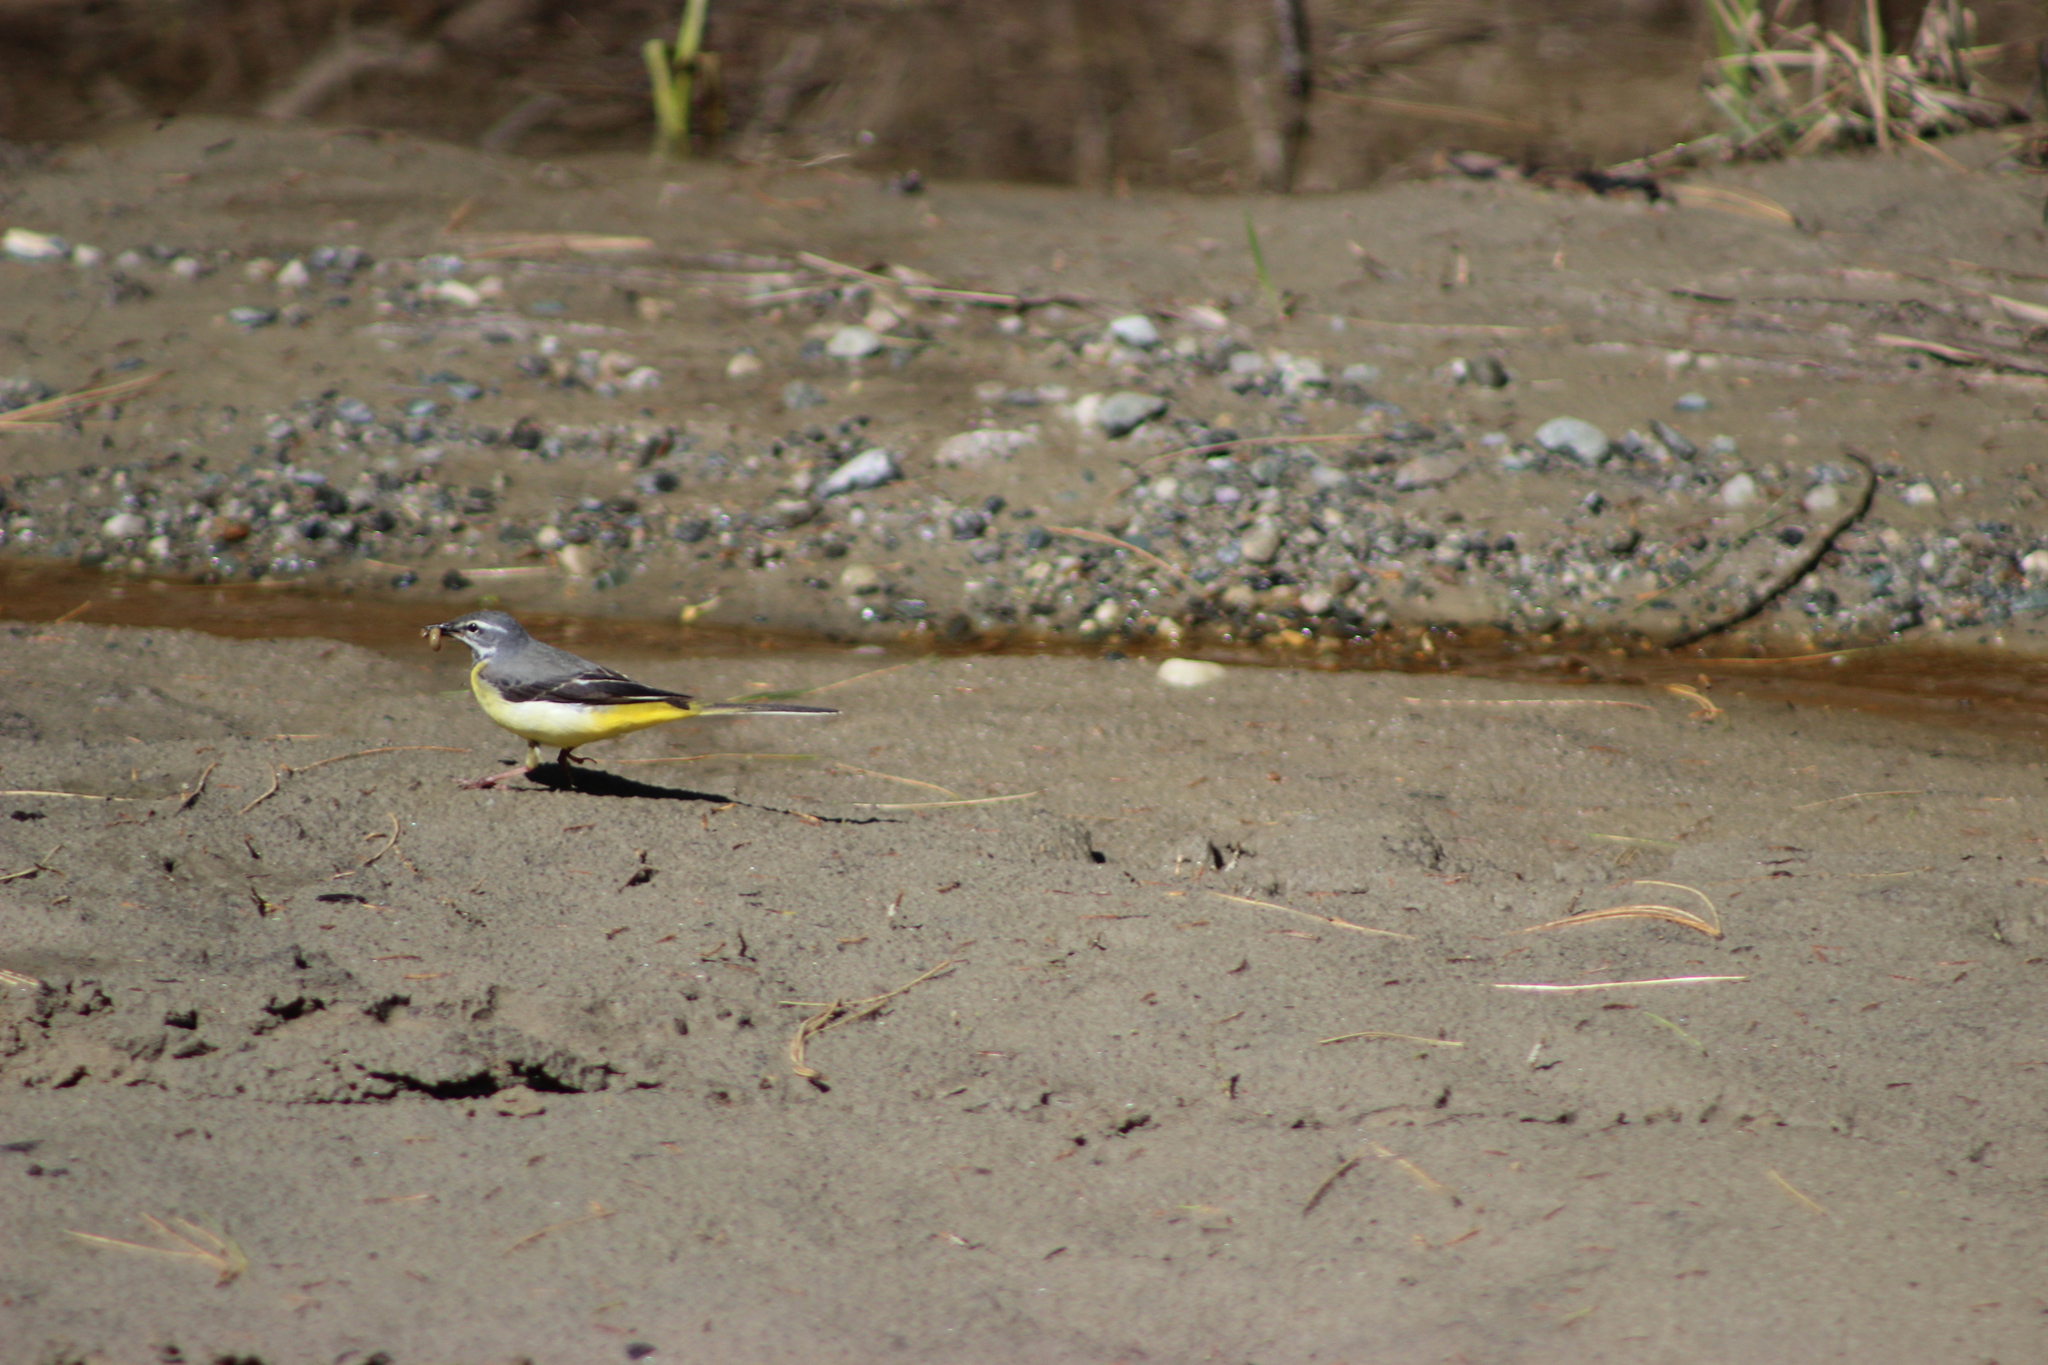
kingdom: Animalia
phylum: Chordata
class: Aves
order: Passeriformes
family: Motacillidae
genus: Motacilla
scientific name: Motacilla cinerea
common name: Grey wagtail
